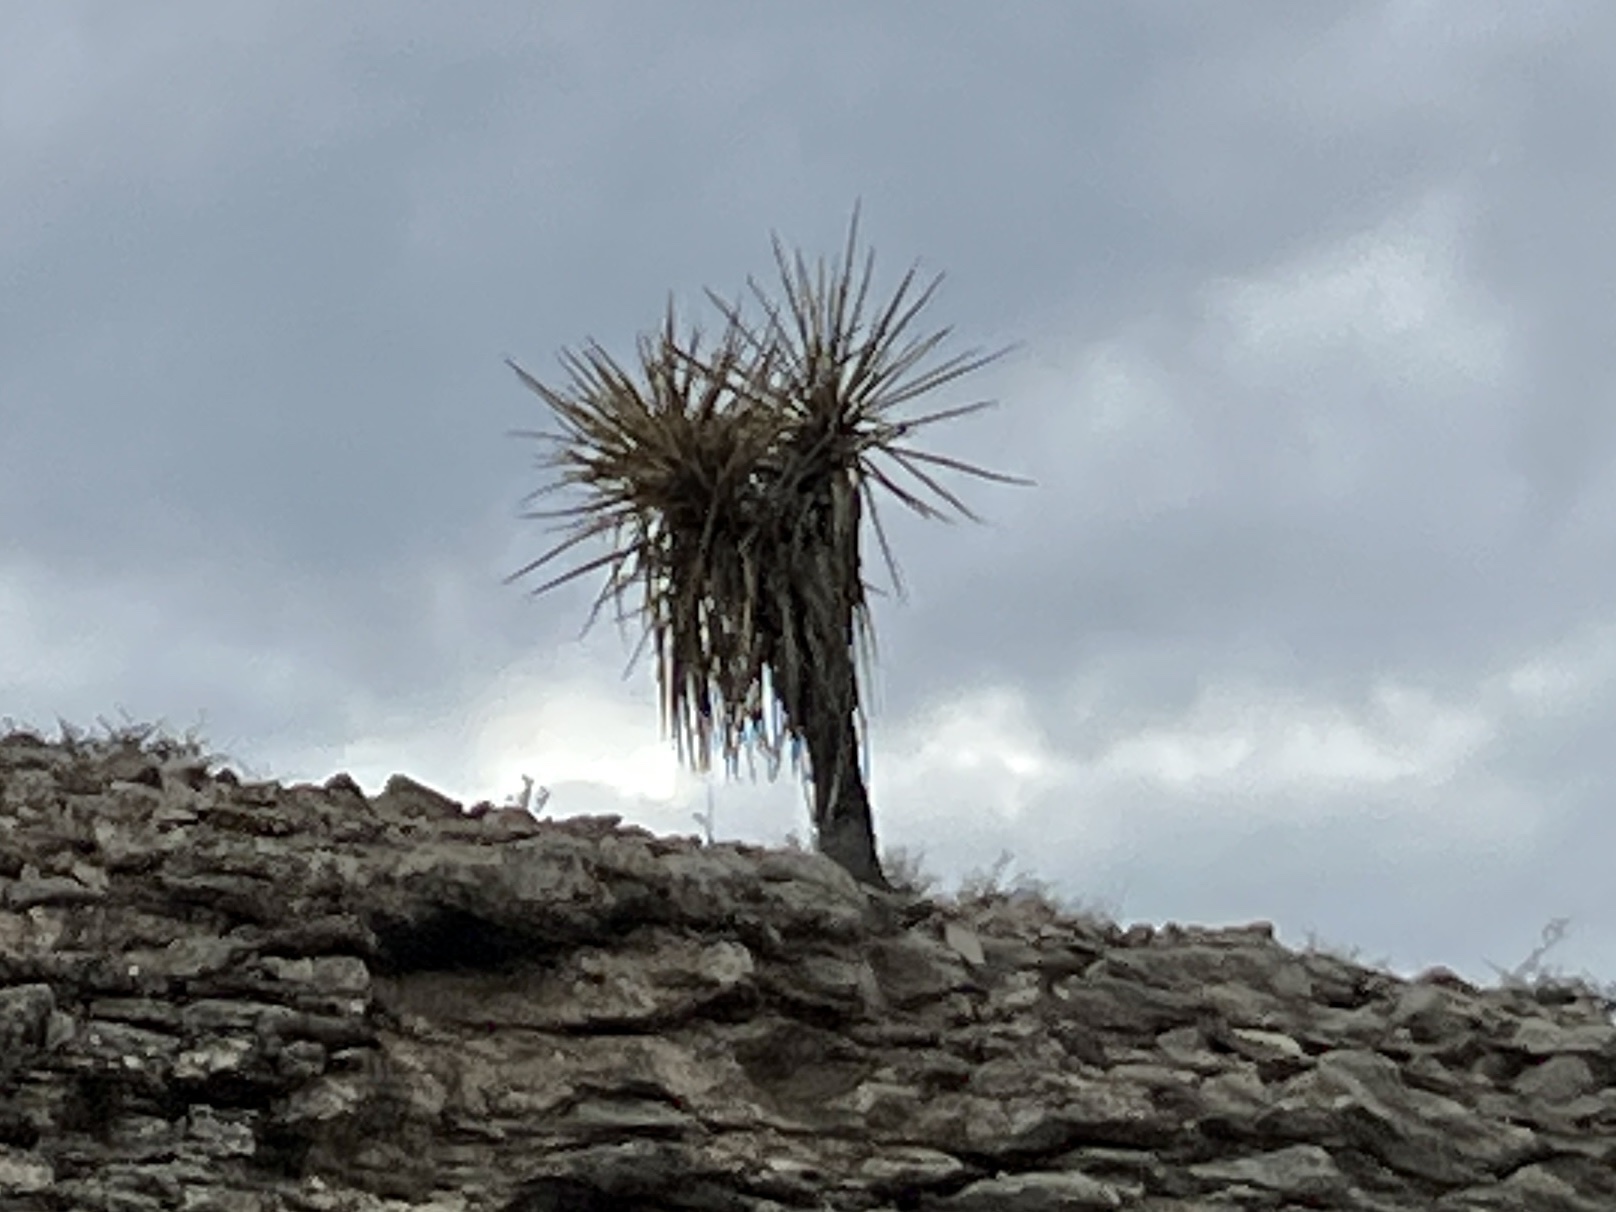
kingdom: Plantae
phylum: Tracheophyta
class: Liliopsida
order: Asparagales
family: Asparagaceae
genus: Yucca
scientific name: Yucca treculiana
